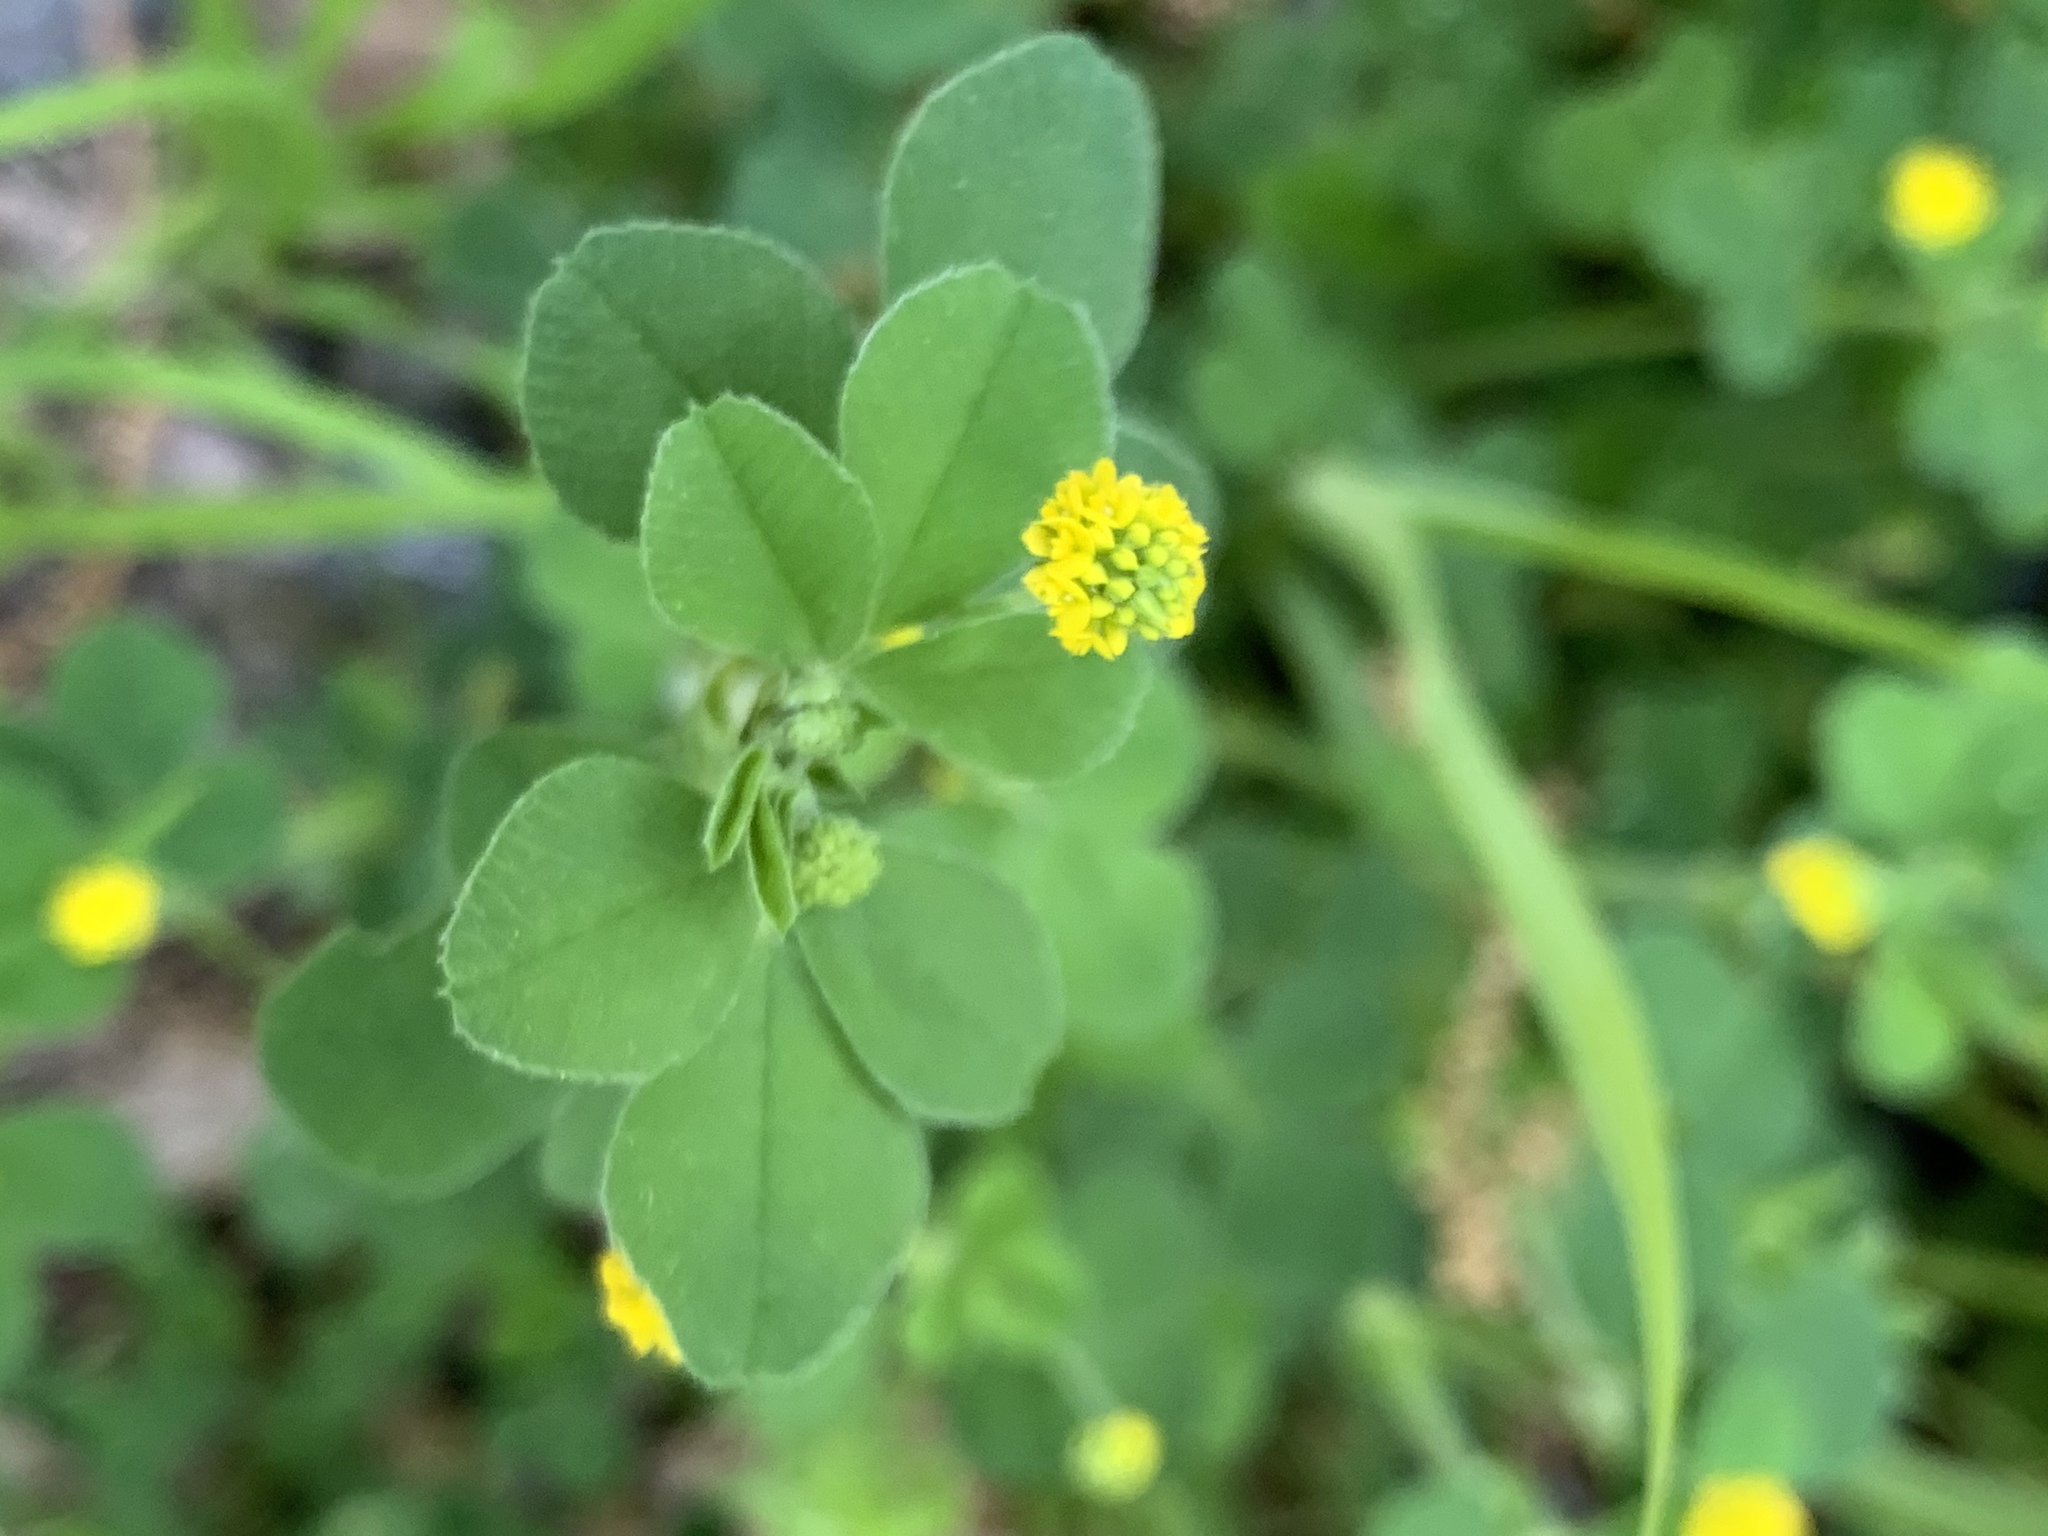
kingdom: Plantae
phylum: Tracheophyta
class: Magnoliopsida
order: Fabales
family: Fabaceae
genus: Medicago
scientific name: Medicago lupulina
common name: Black medick
